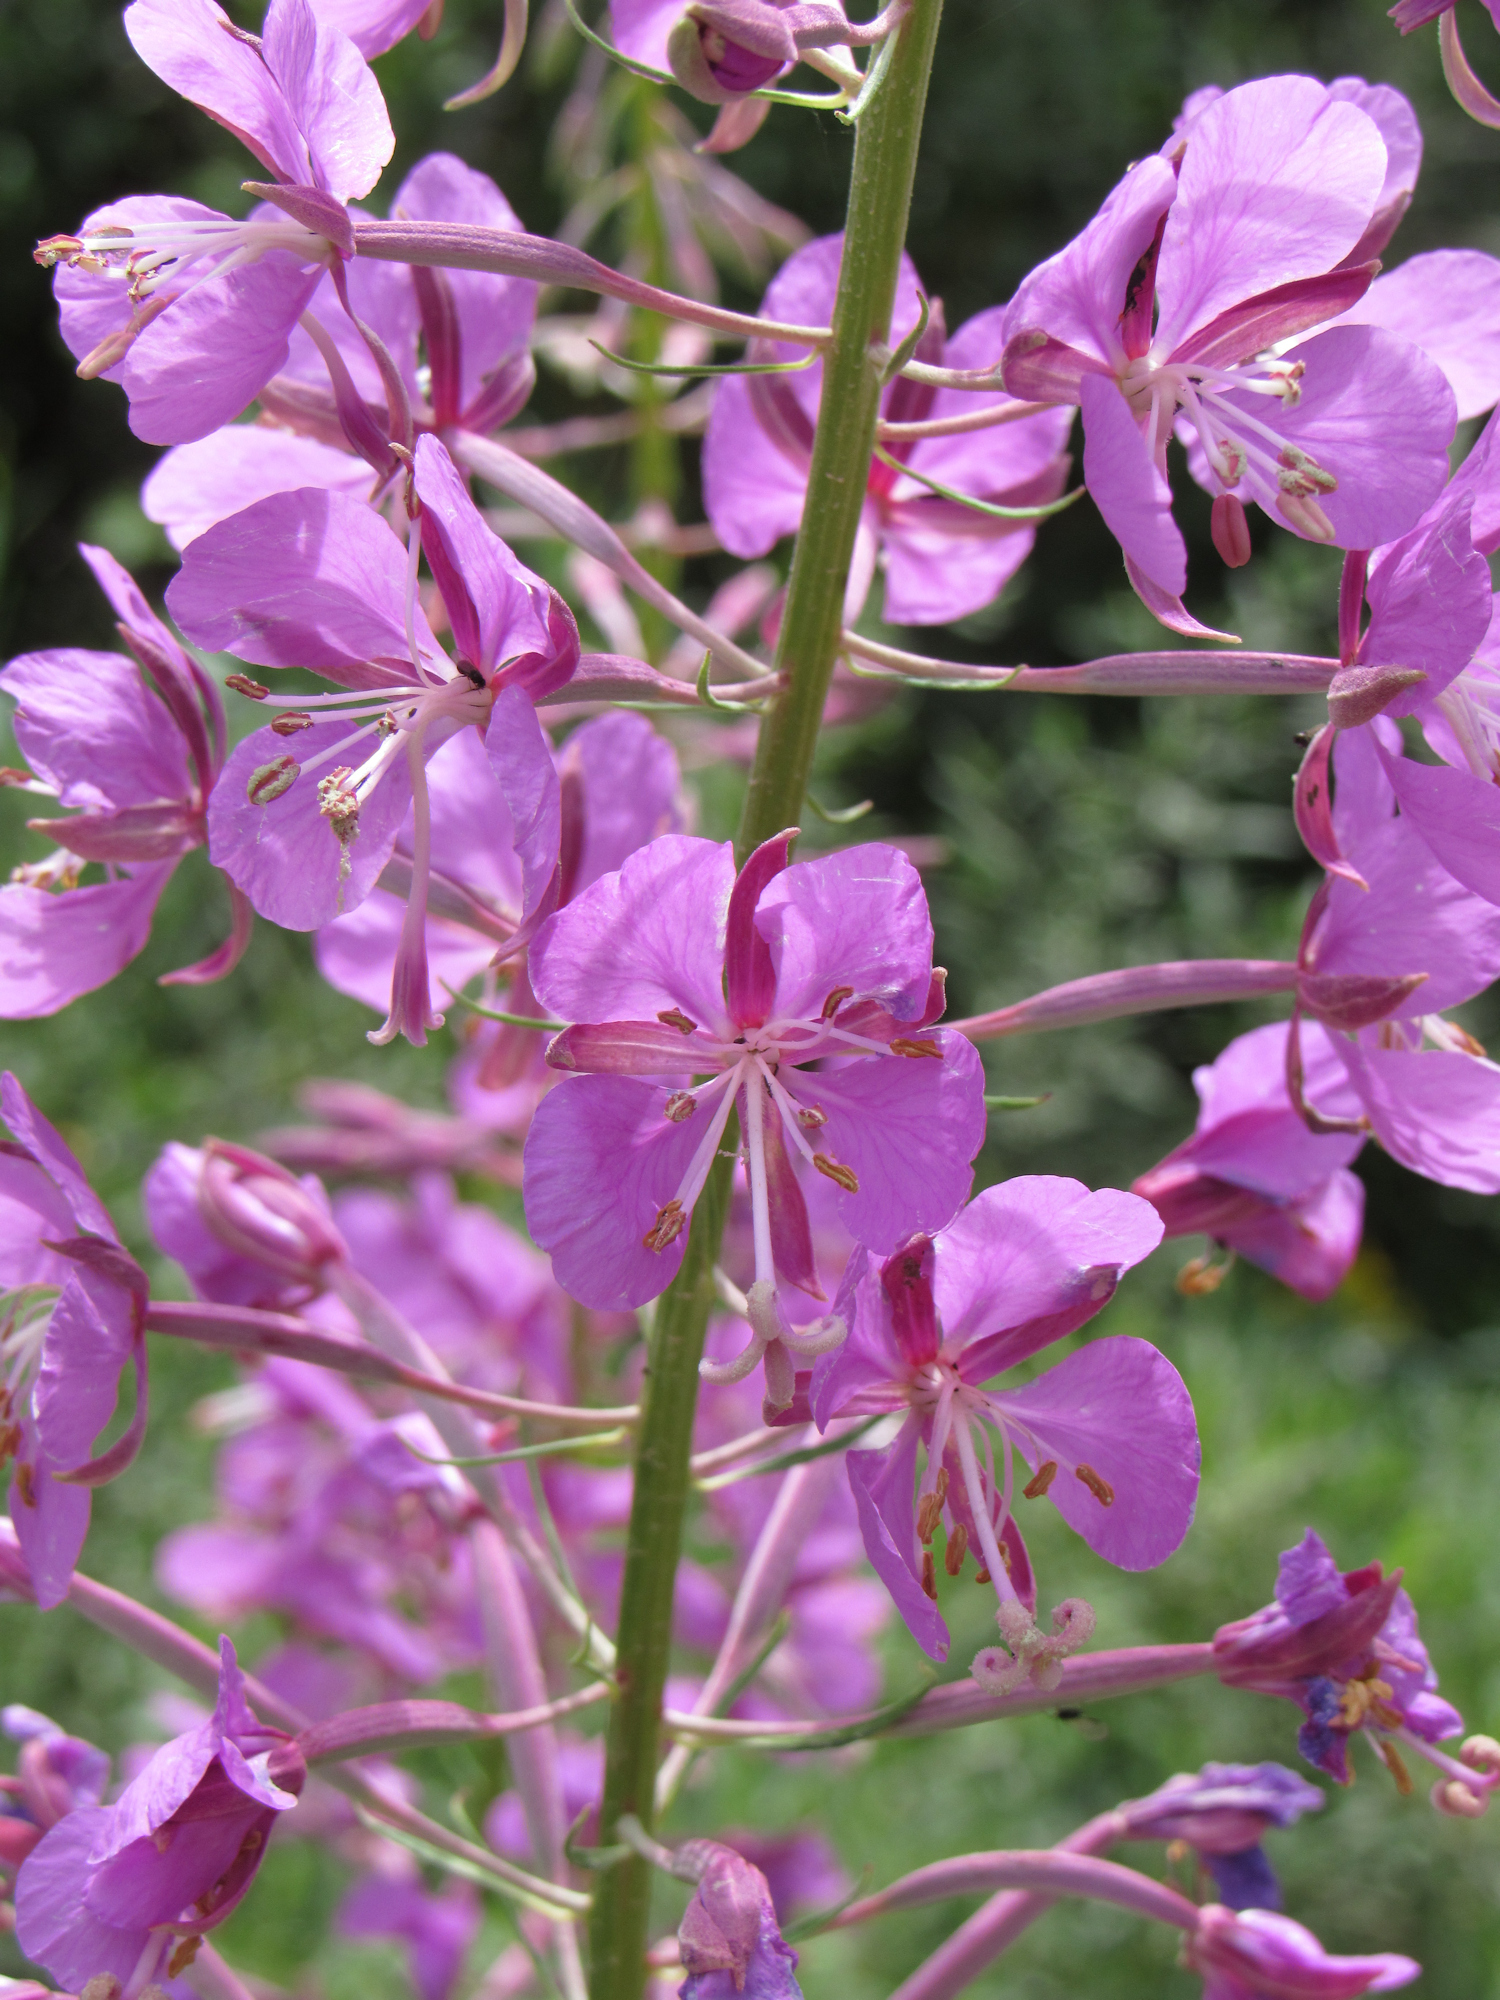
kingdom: Plantae
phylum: Tracheophyta
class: Magnoliopsida
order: Myrtales
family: Onagraceae
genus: Chamaenerion
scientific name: Chamaenerion angustifolium
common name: Fireweed
